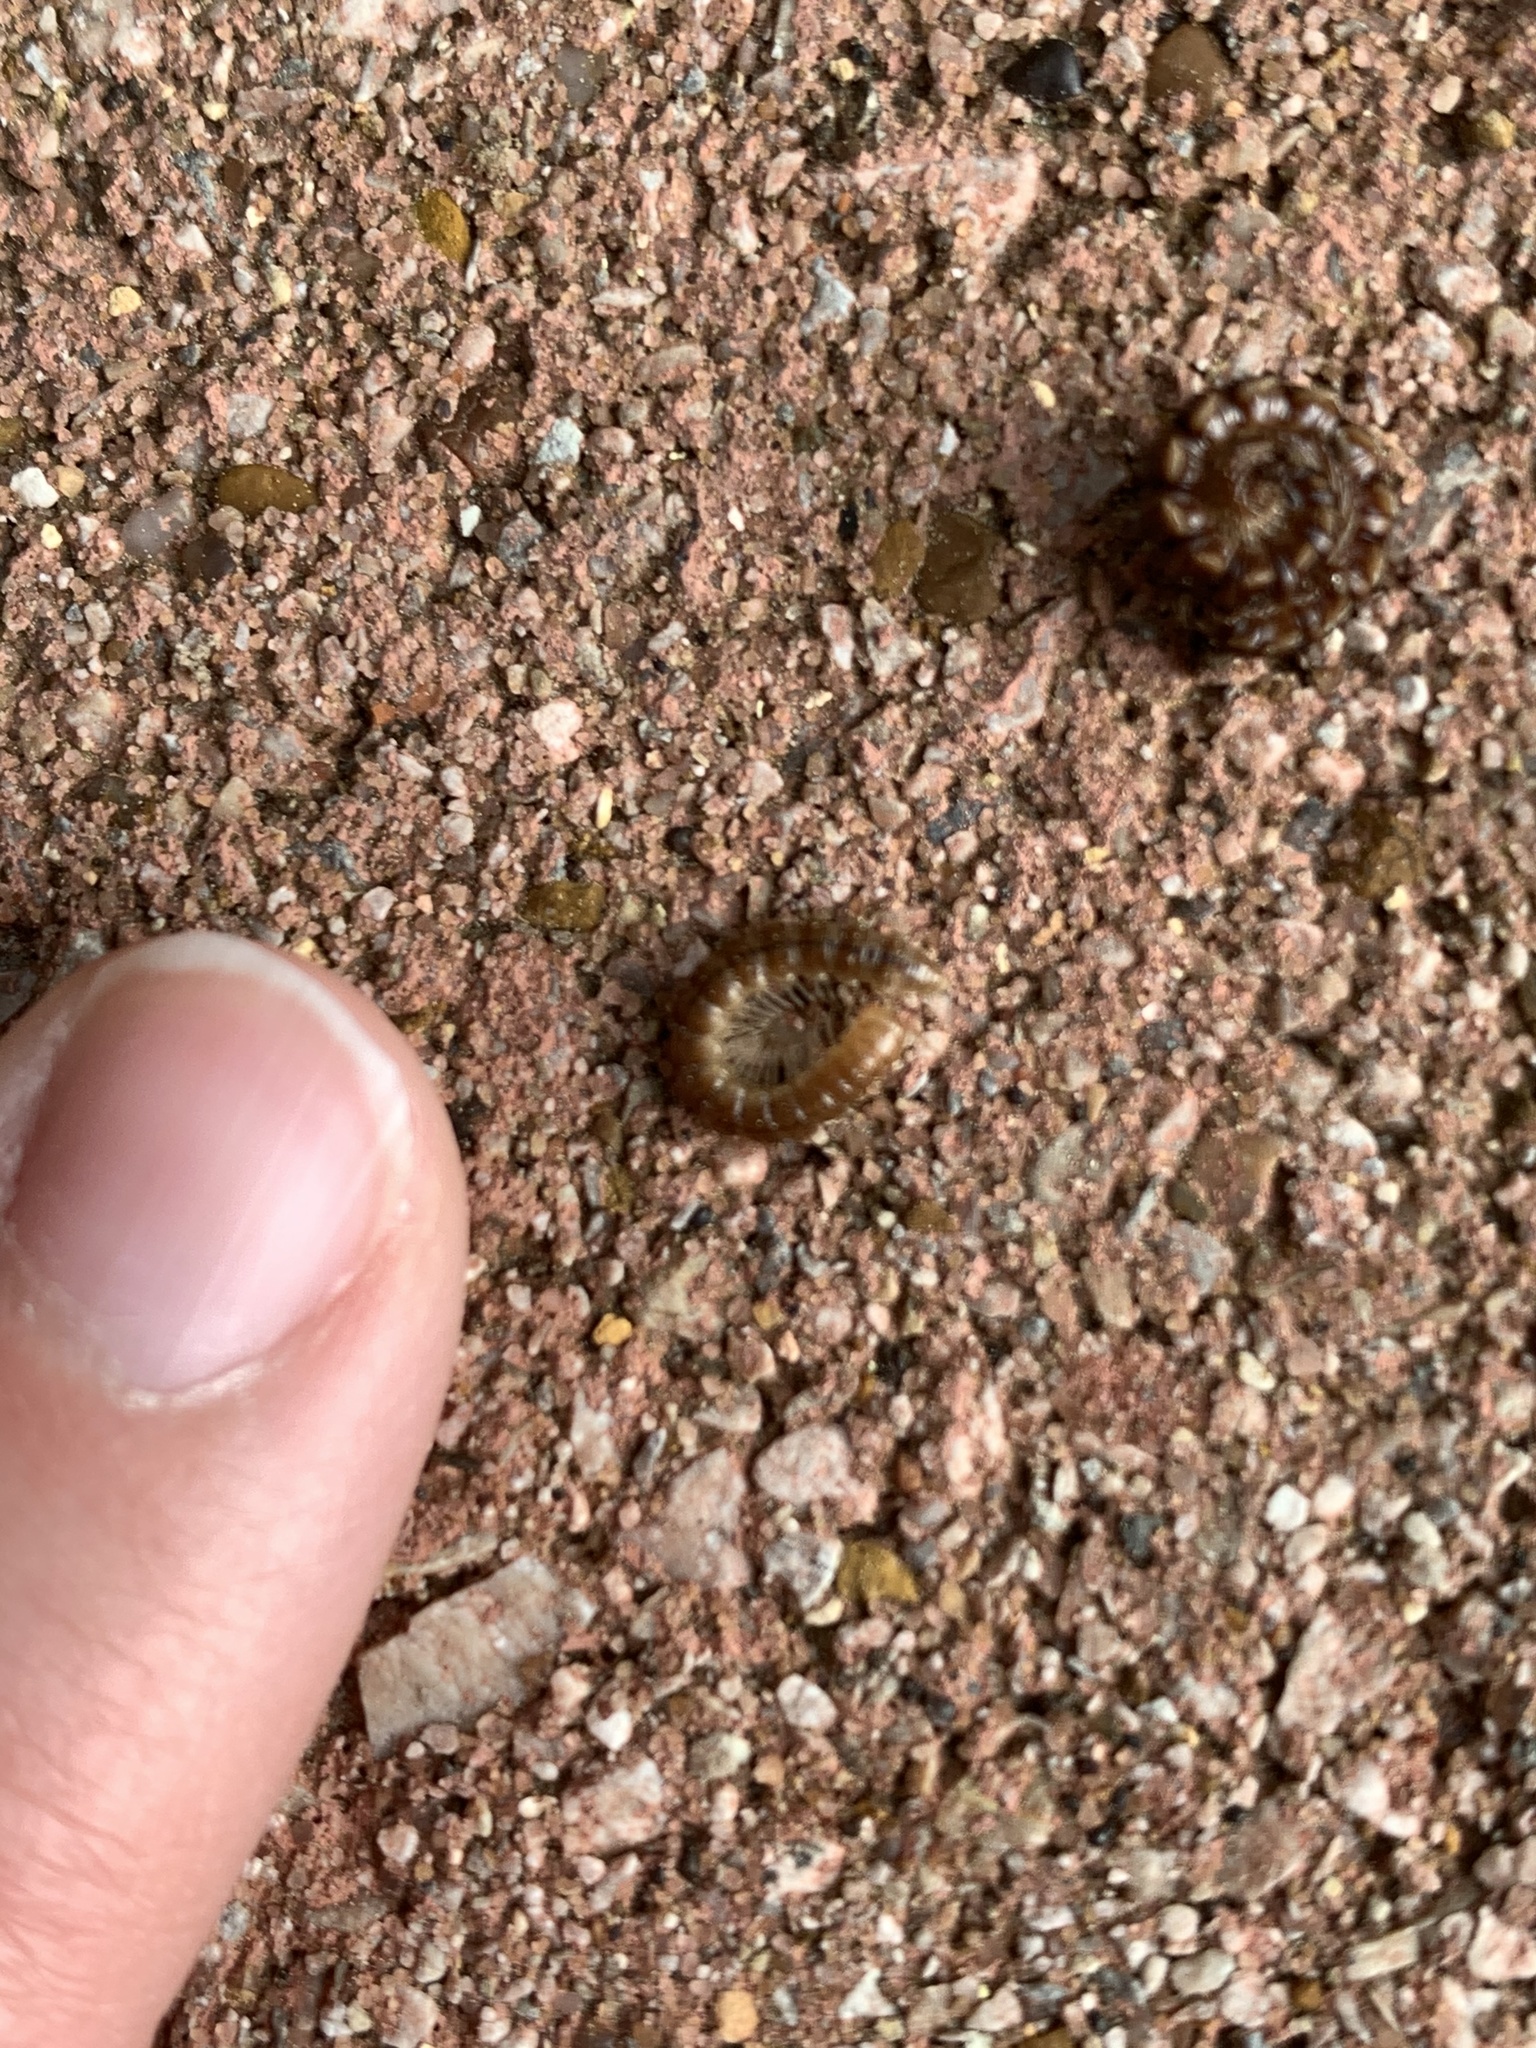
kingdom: Animalia
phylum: Arthropoda
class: Diplopoda
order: Polydesmida
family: Paradoxosomatidae
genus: Oxidus
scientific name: Oxidus gracilis
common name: Greenhouse millipede
